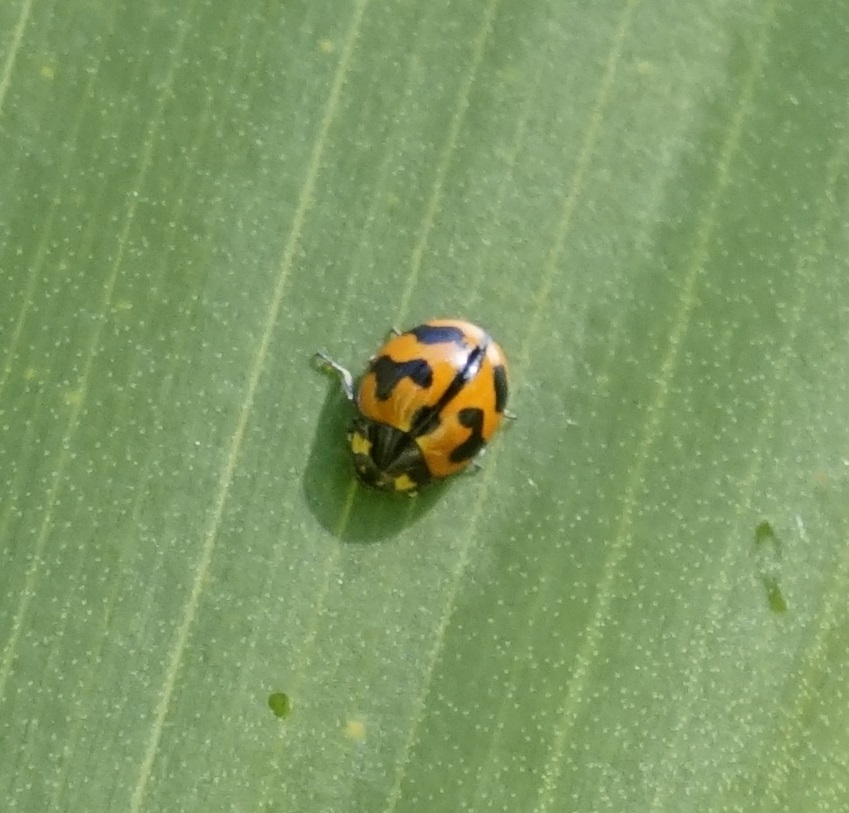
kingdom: Animalia
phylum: Arthropoda
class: Insecta
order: Coleoptera
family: Coccinellidae
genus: Coccinella
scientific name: Coccinella transversalis
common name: Transverse lady beetle
